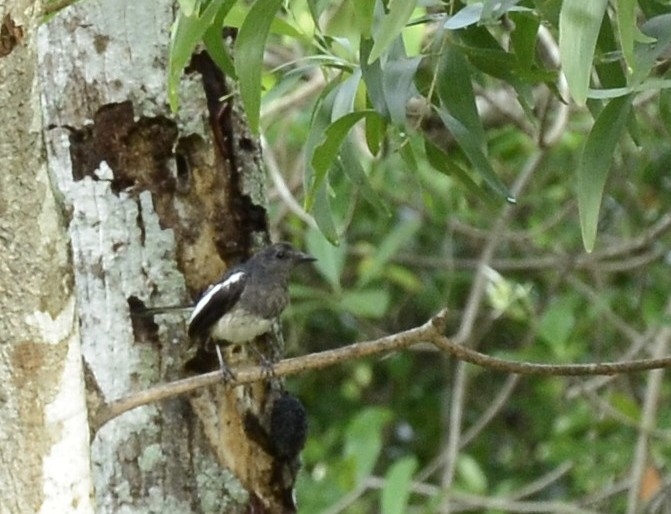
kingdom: Animalia
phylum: Chordata
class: Aves
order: Passeriformes
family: Muscicapidae
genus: Copsychus
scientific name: Copsychus saularis
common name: Oriental magpie-robin
